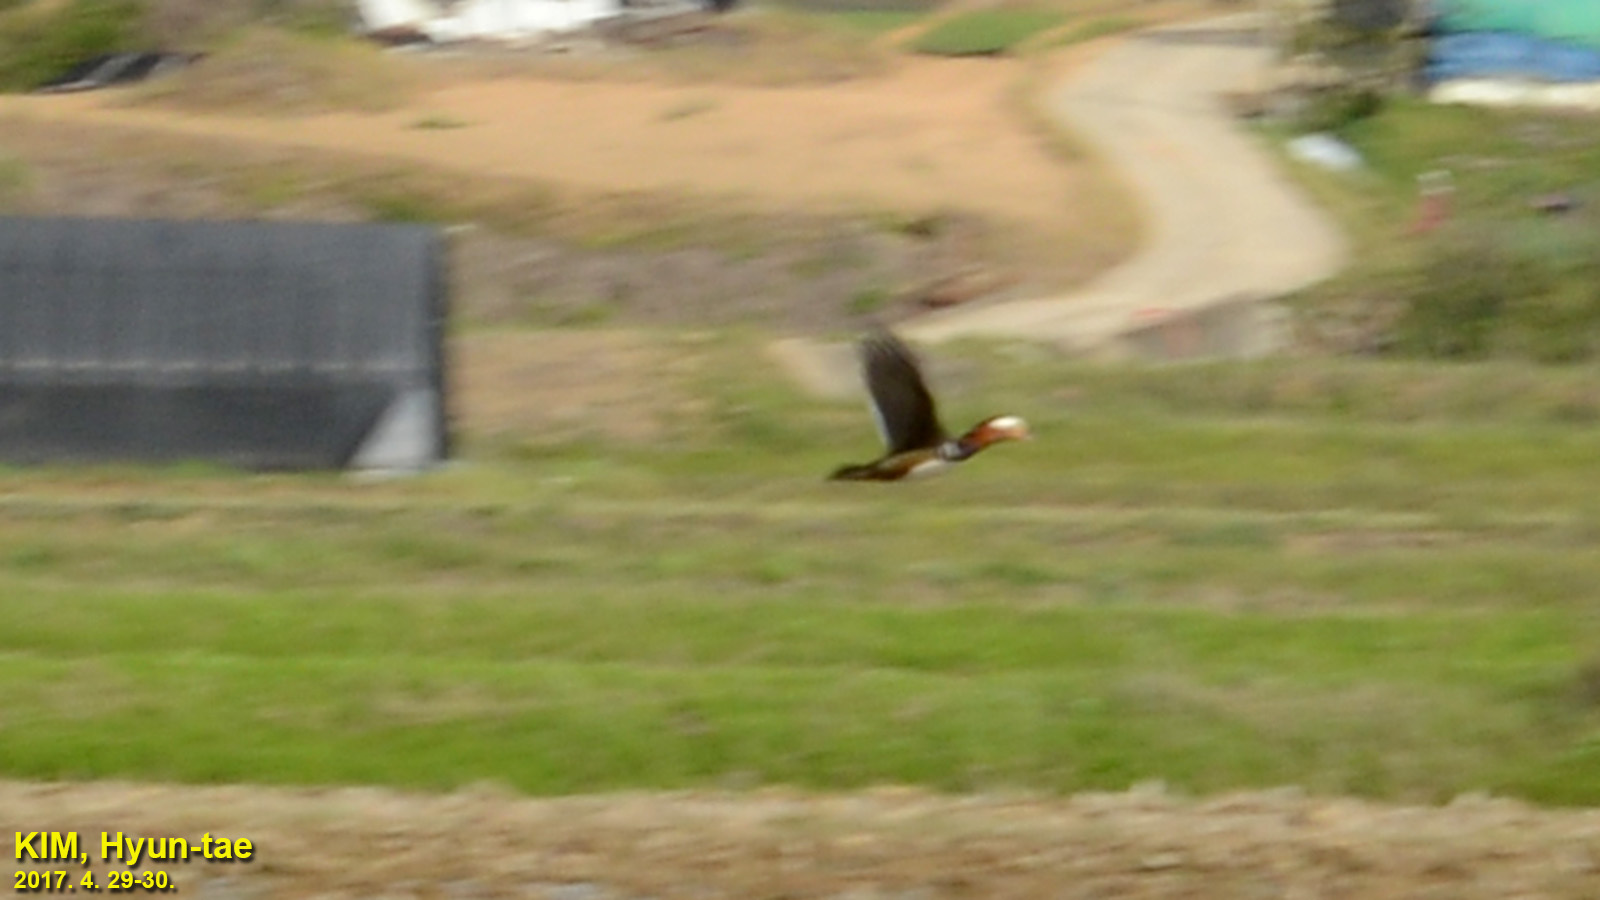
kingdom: Animalia
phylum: Chordata
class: Aves
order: Anseriformes
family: Anatidae
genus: Aix
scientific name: Aix galericulata
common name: Mandarin duck
